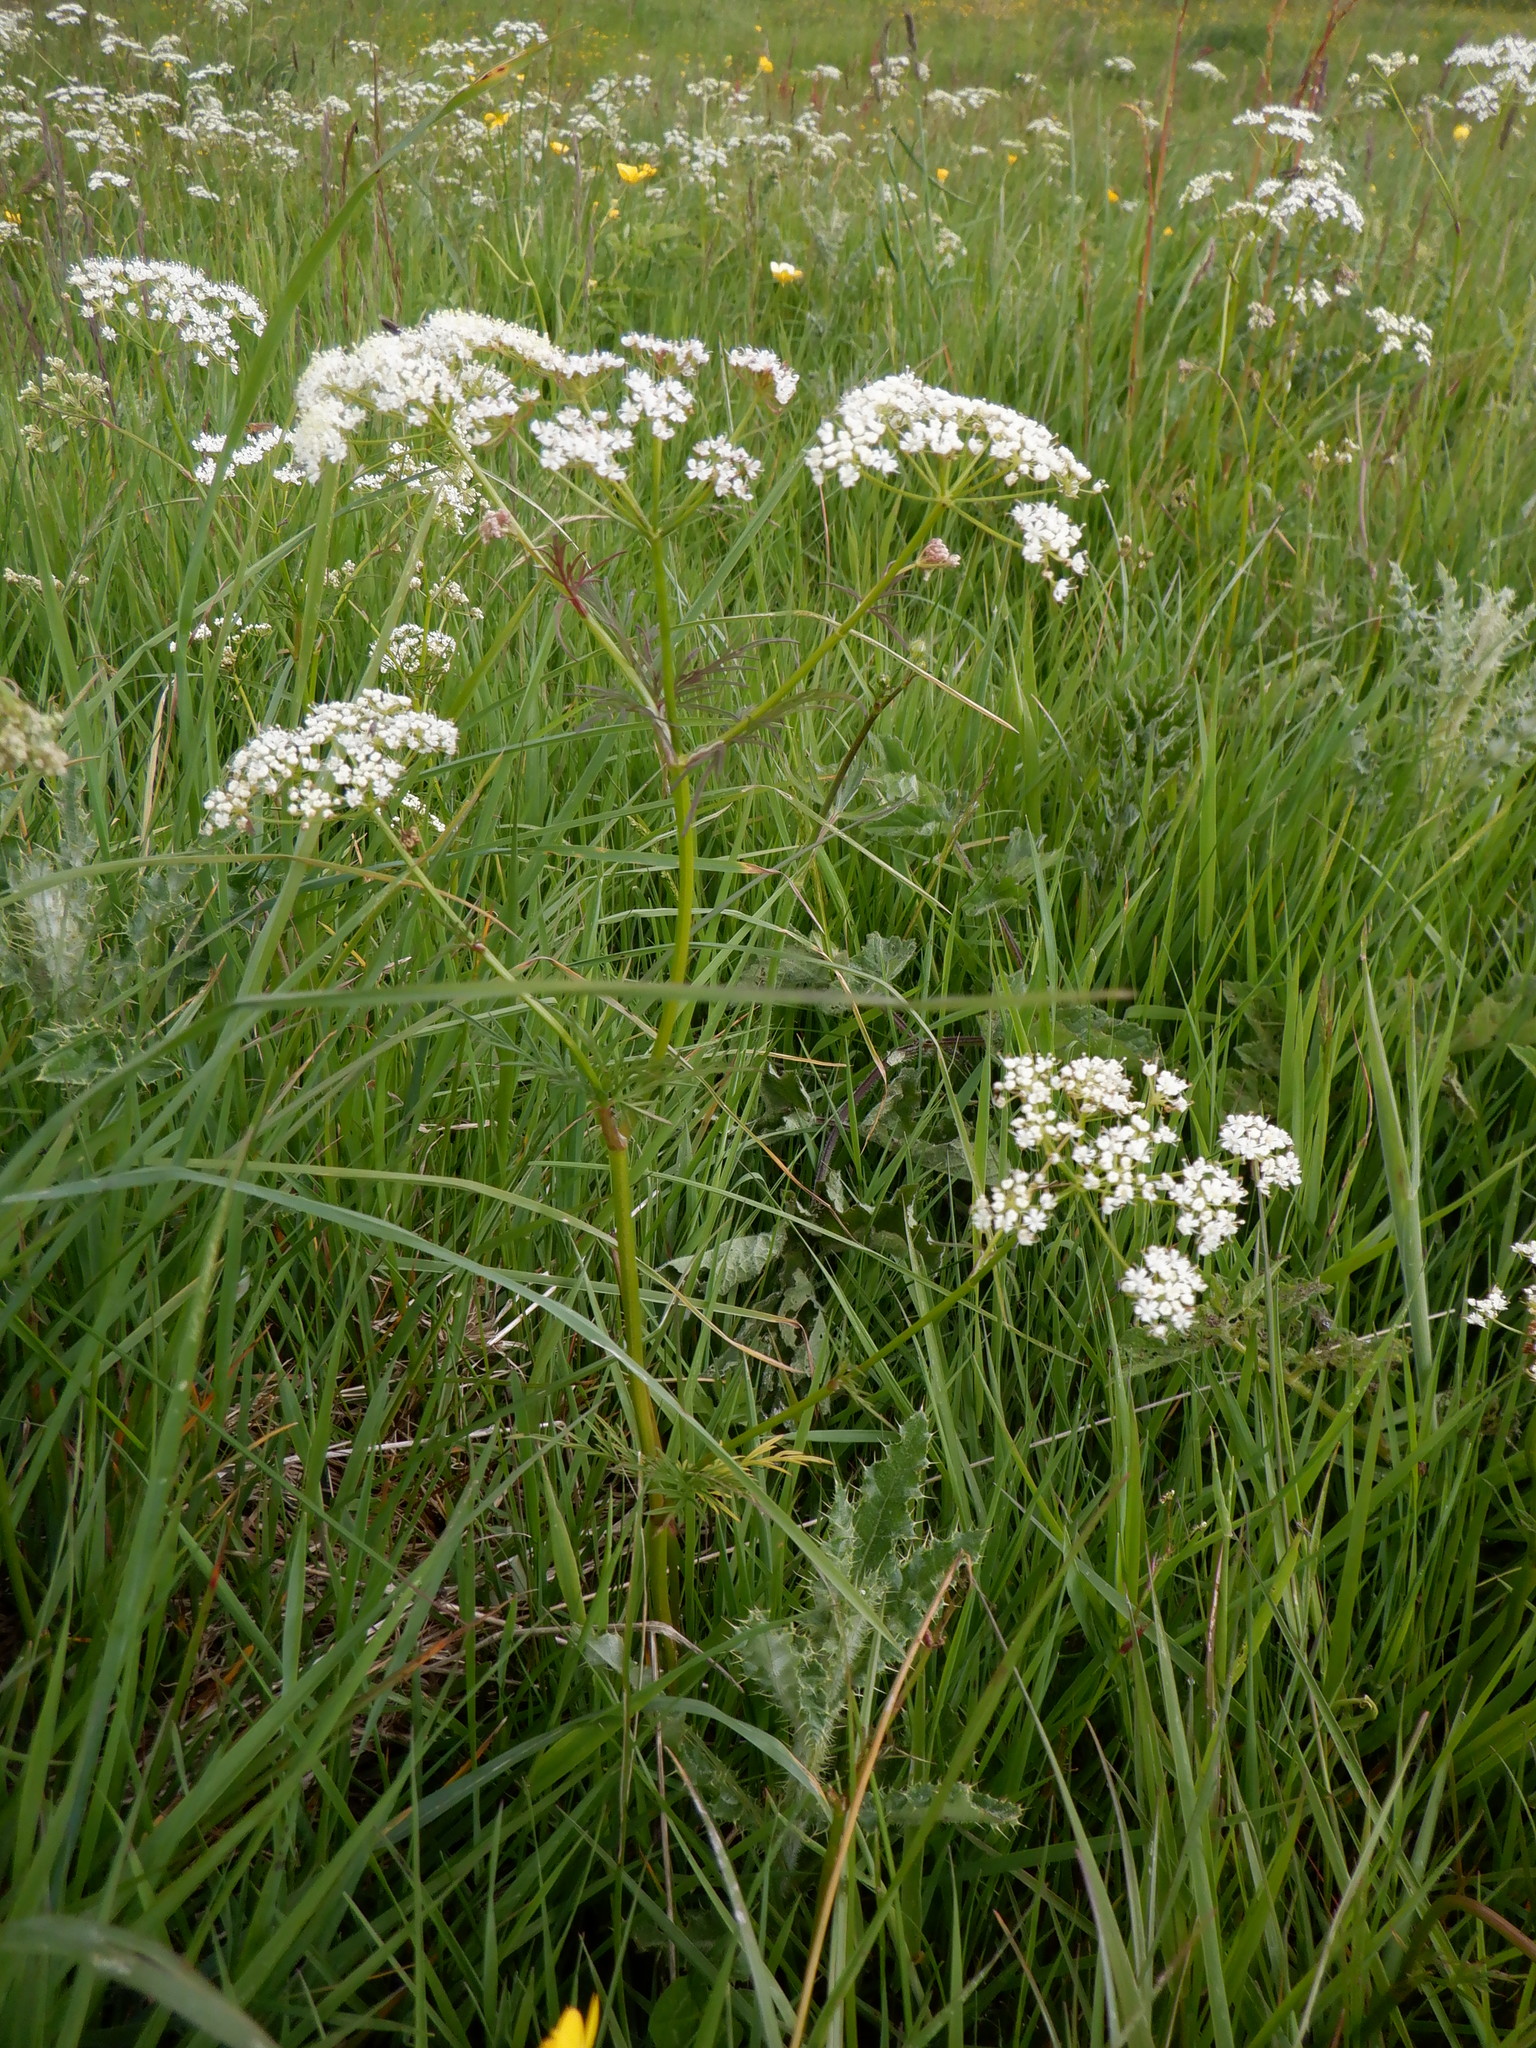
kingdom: Plantae
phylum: Tracheophyta
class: Magnoliopsida
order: Apiales
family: Apiaceae
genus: Conopodium
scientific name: Conopodium majus
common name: Pignut
